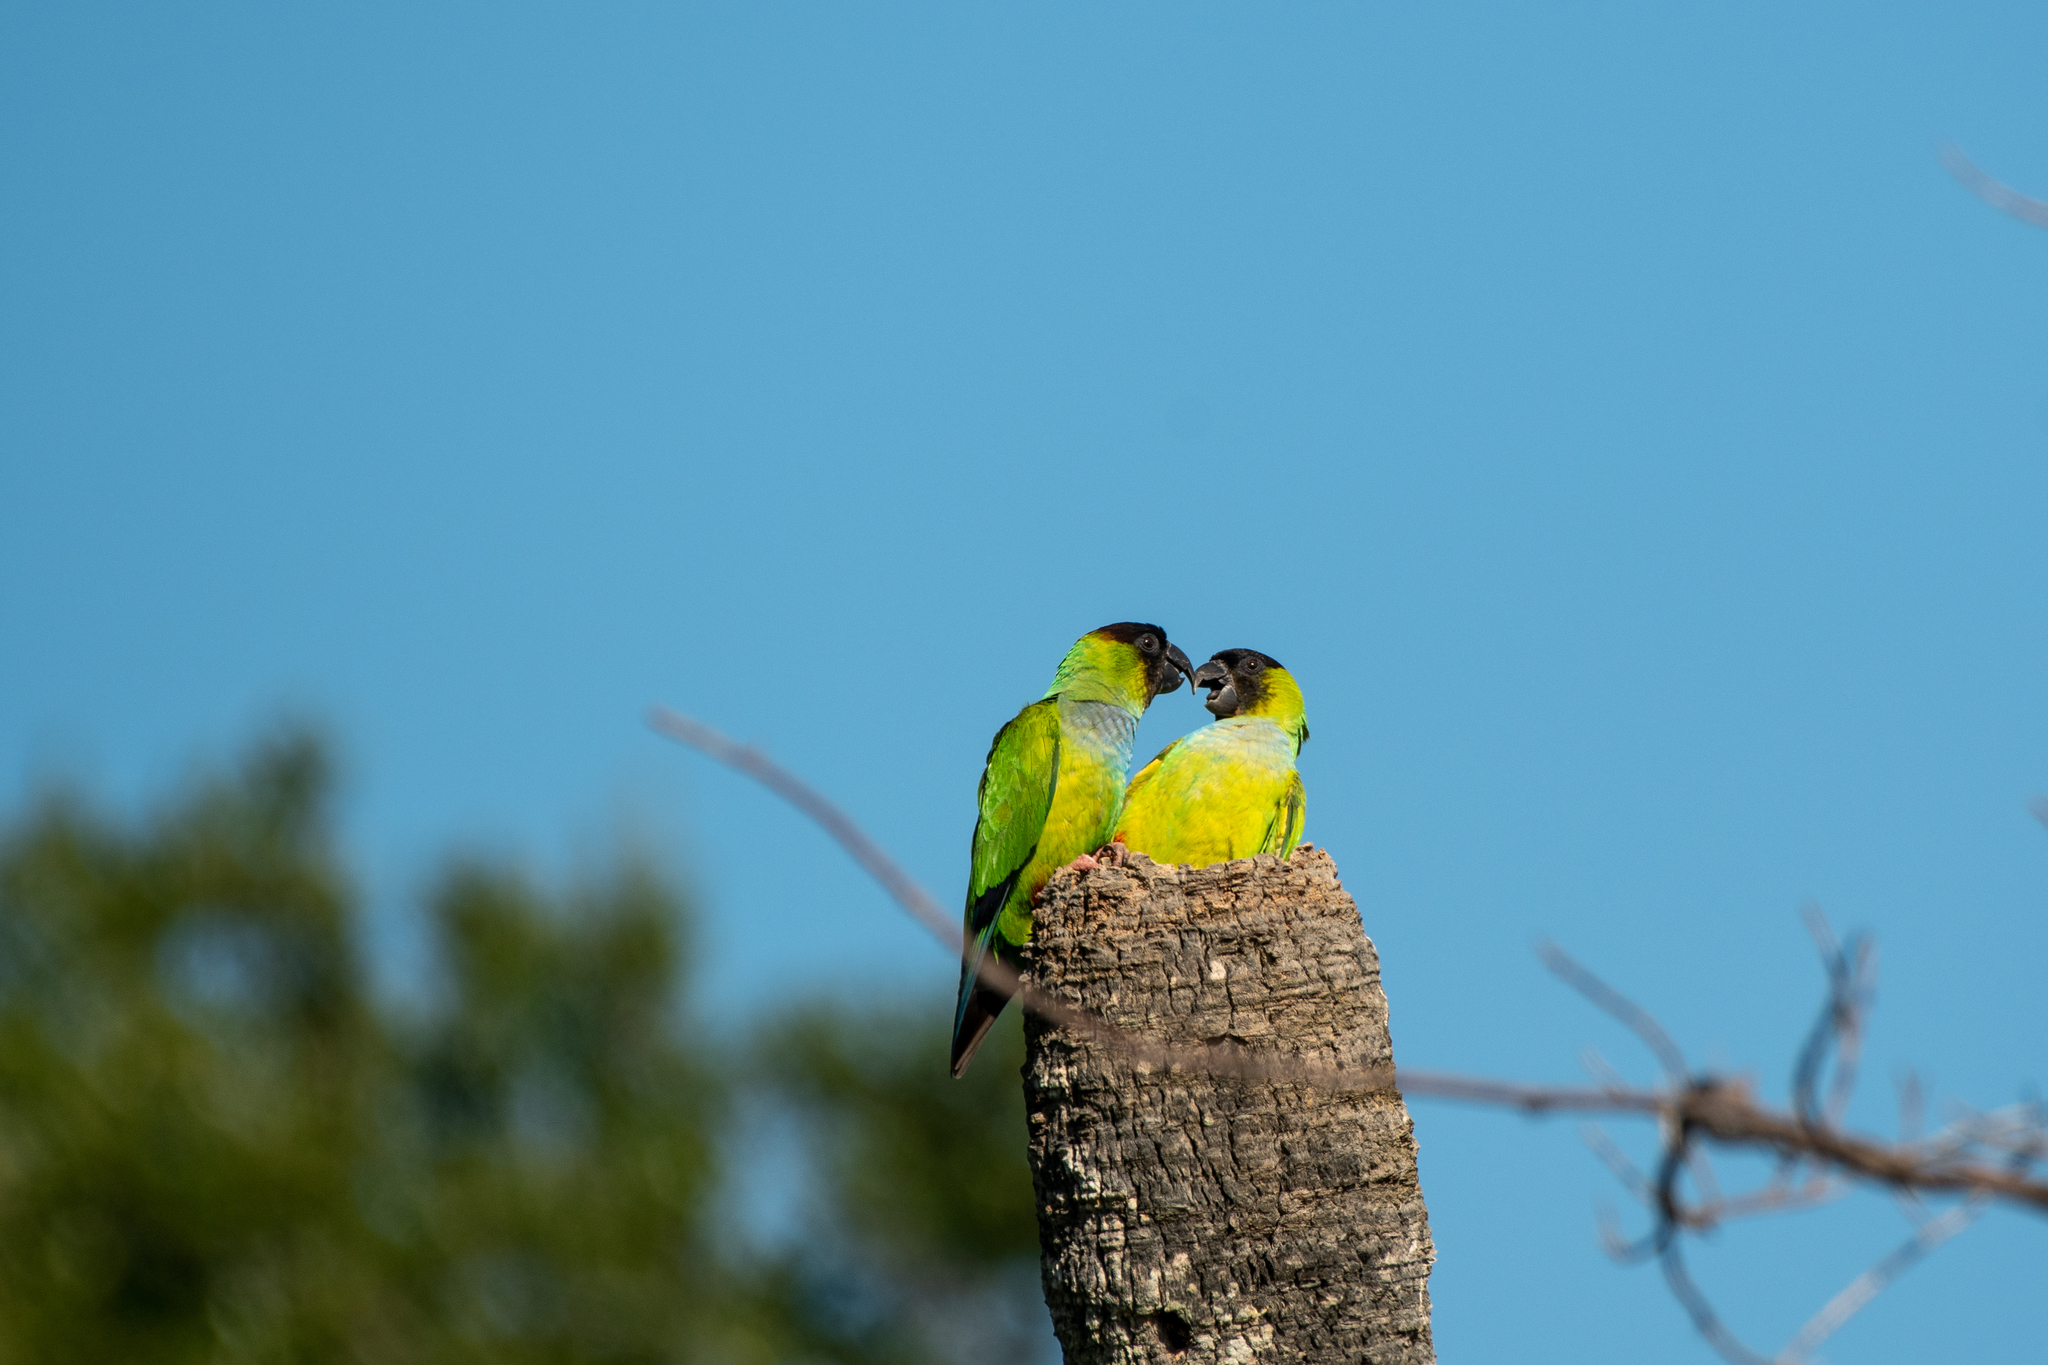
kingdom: Animalia
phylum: Chordata
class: Aves
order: Psittaciformes
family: Psittacidae
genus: Nandayus
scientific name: Nandayus nenday
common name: Nanday parakeet
